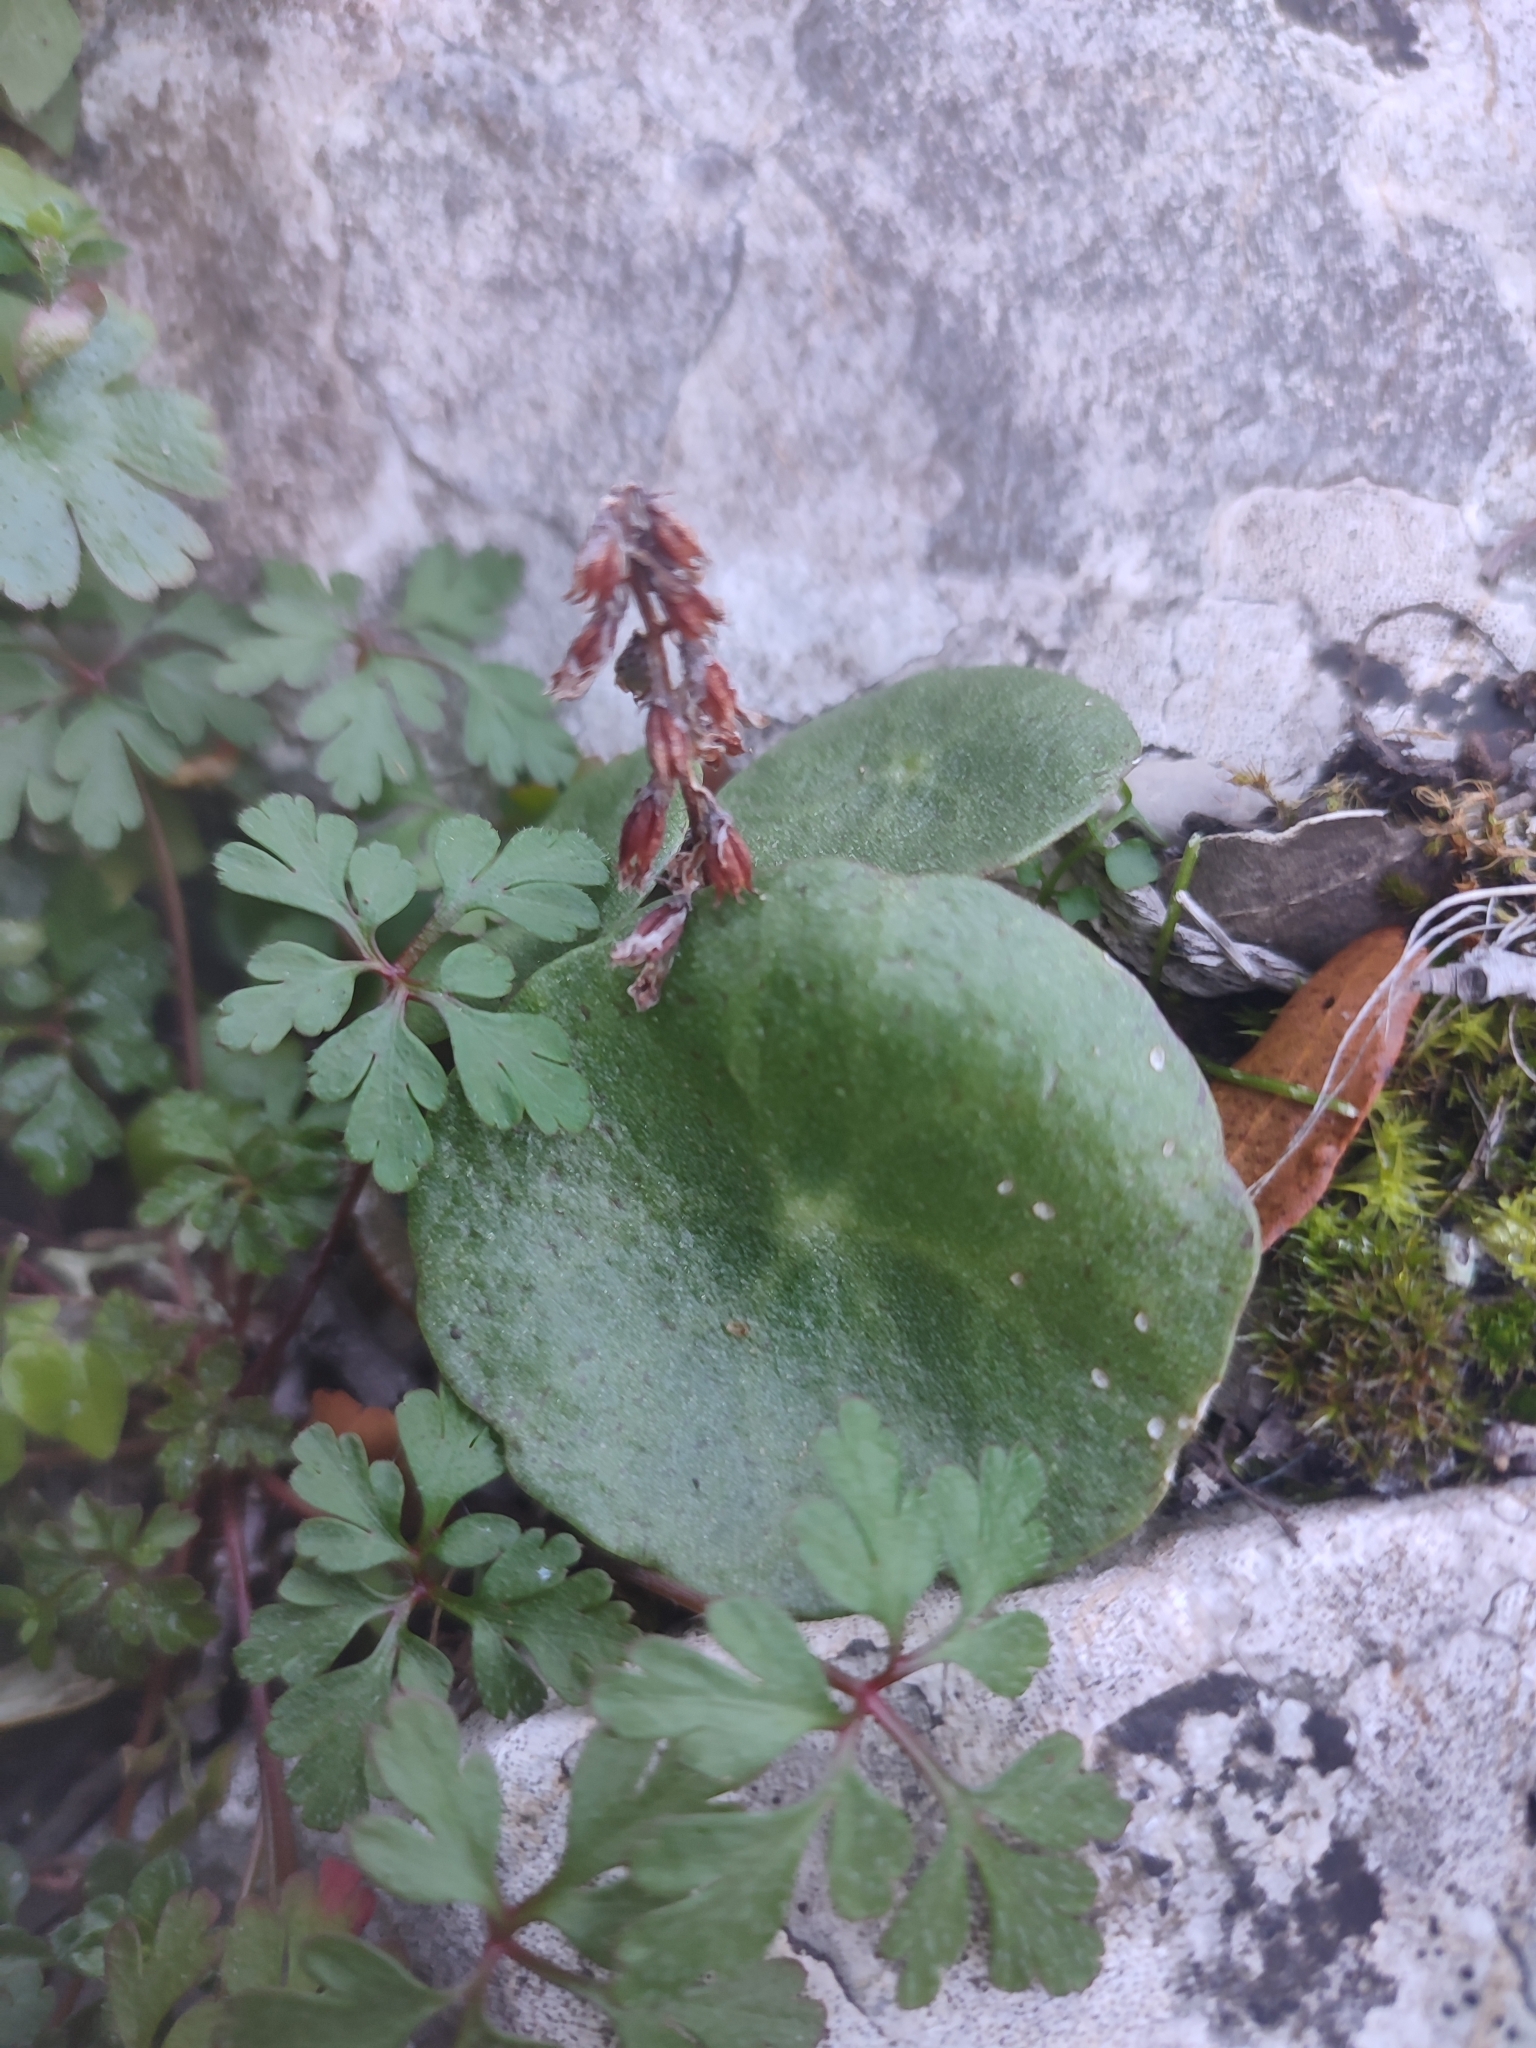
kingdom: Plantae
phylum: Tracheophyta
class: Magnoliopsida
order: Saxifragales
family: Crassulaceae
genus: Umbilicus
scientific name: Umbilicus rupestris
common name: Navelwort
